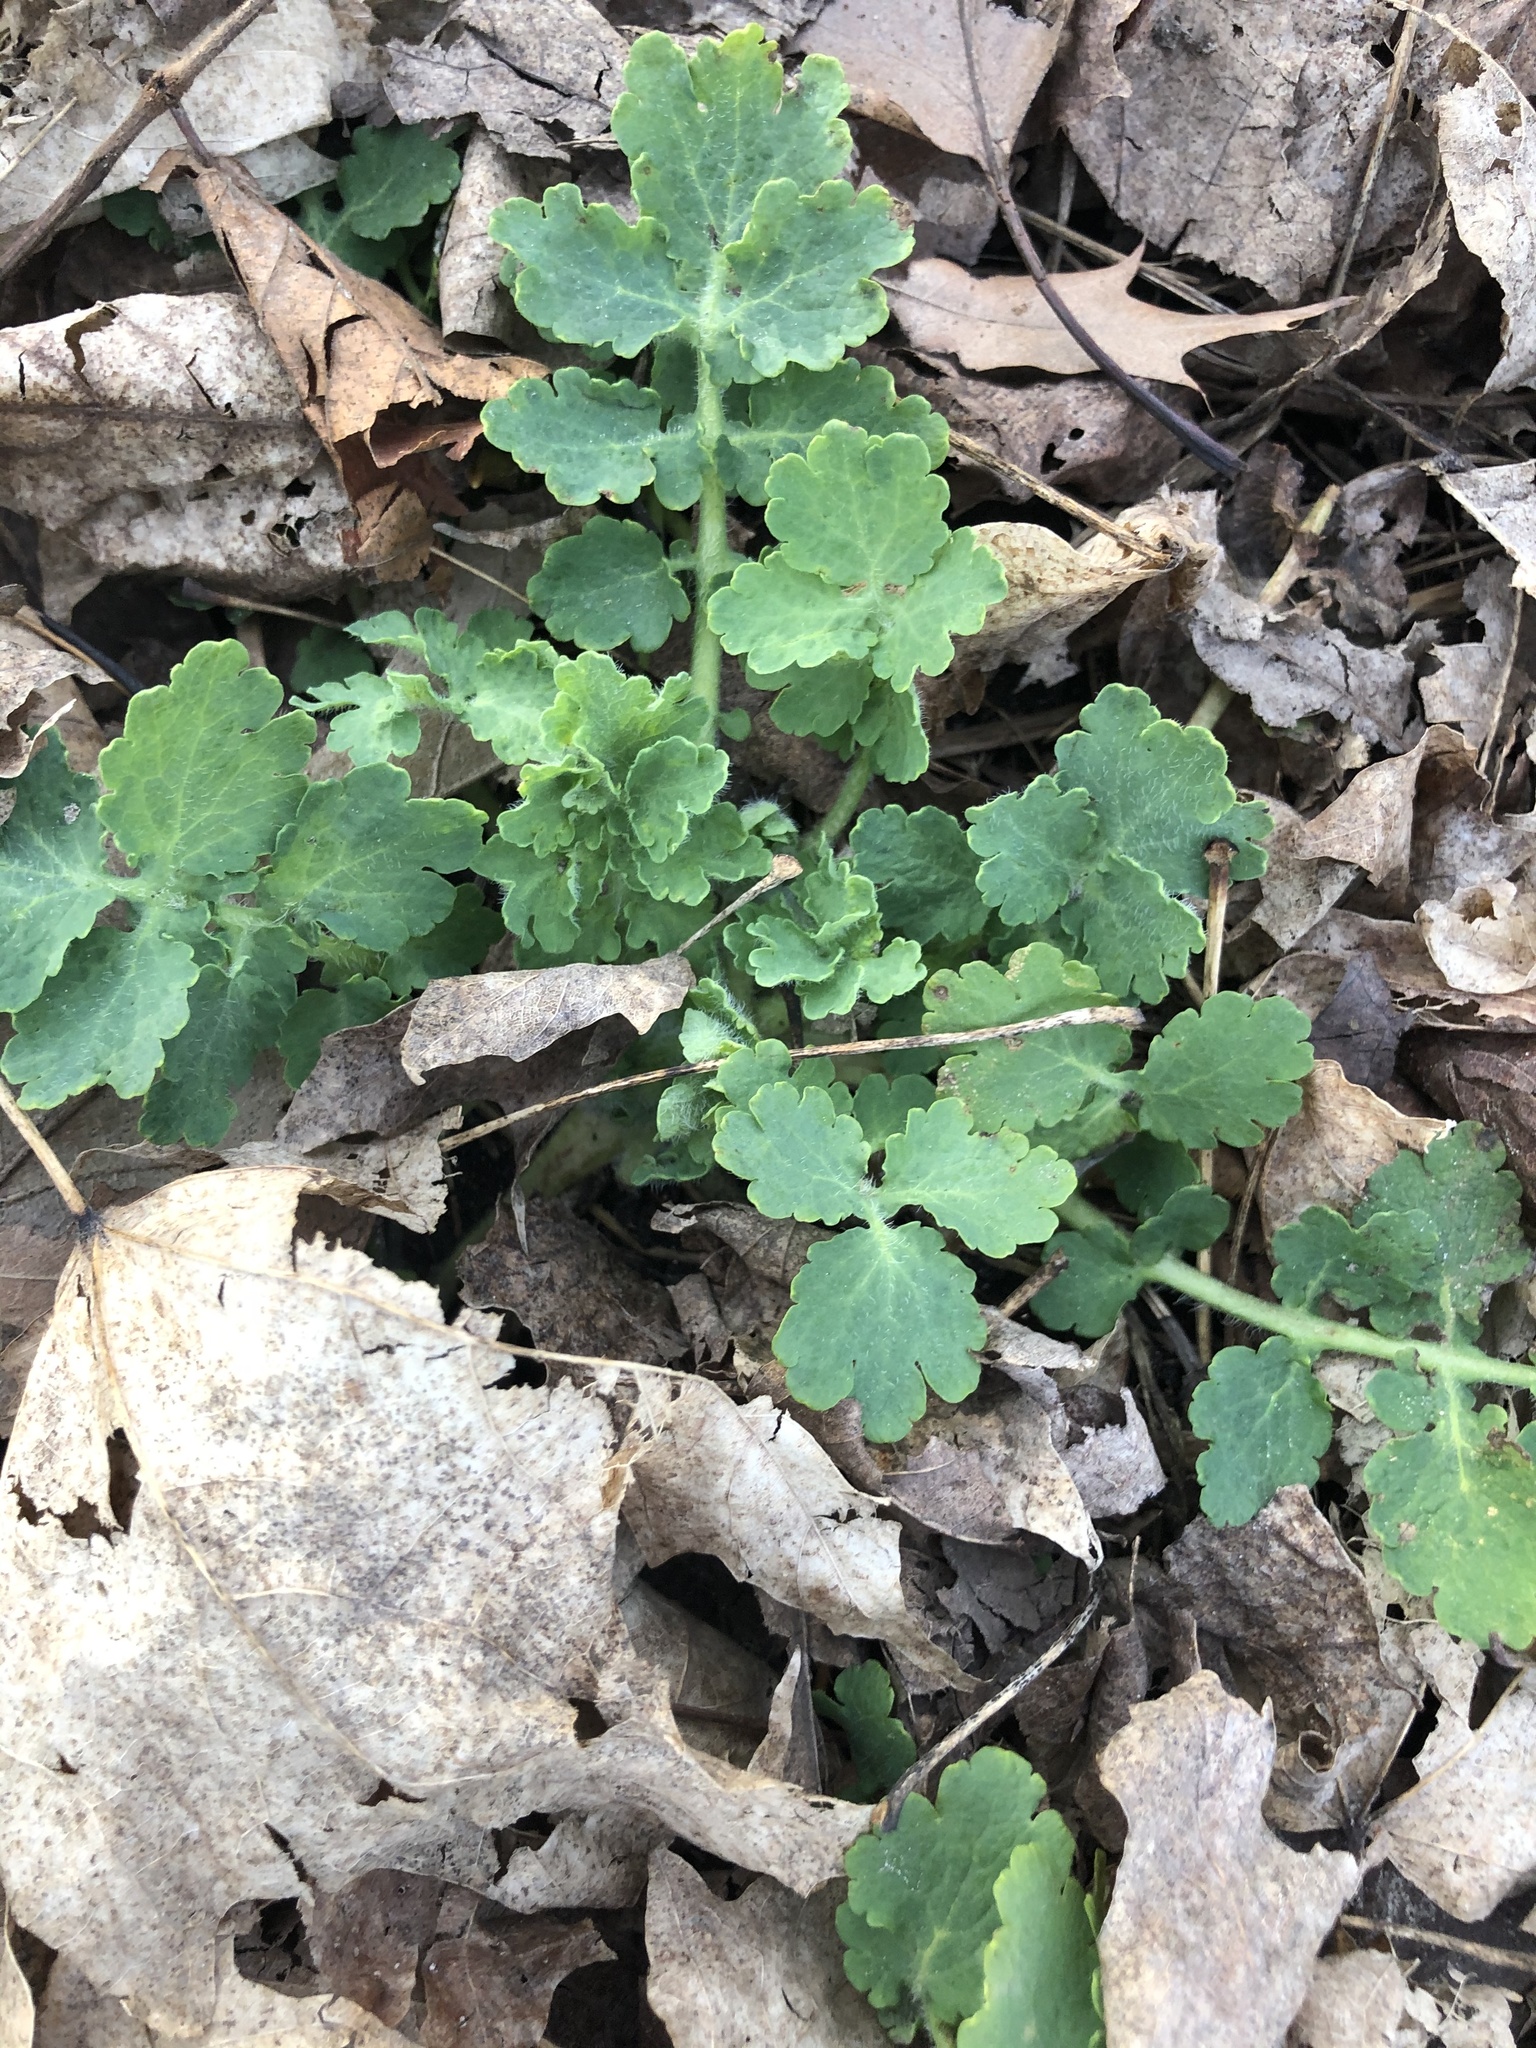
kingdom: Plantae
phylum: Tracheophyta
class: Magnoliopsida
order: Ranunculales
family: Papaveraceae
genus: Chelidonium
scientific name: Chelidonium majus
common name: Greater celandine
